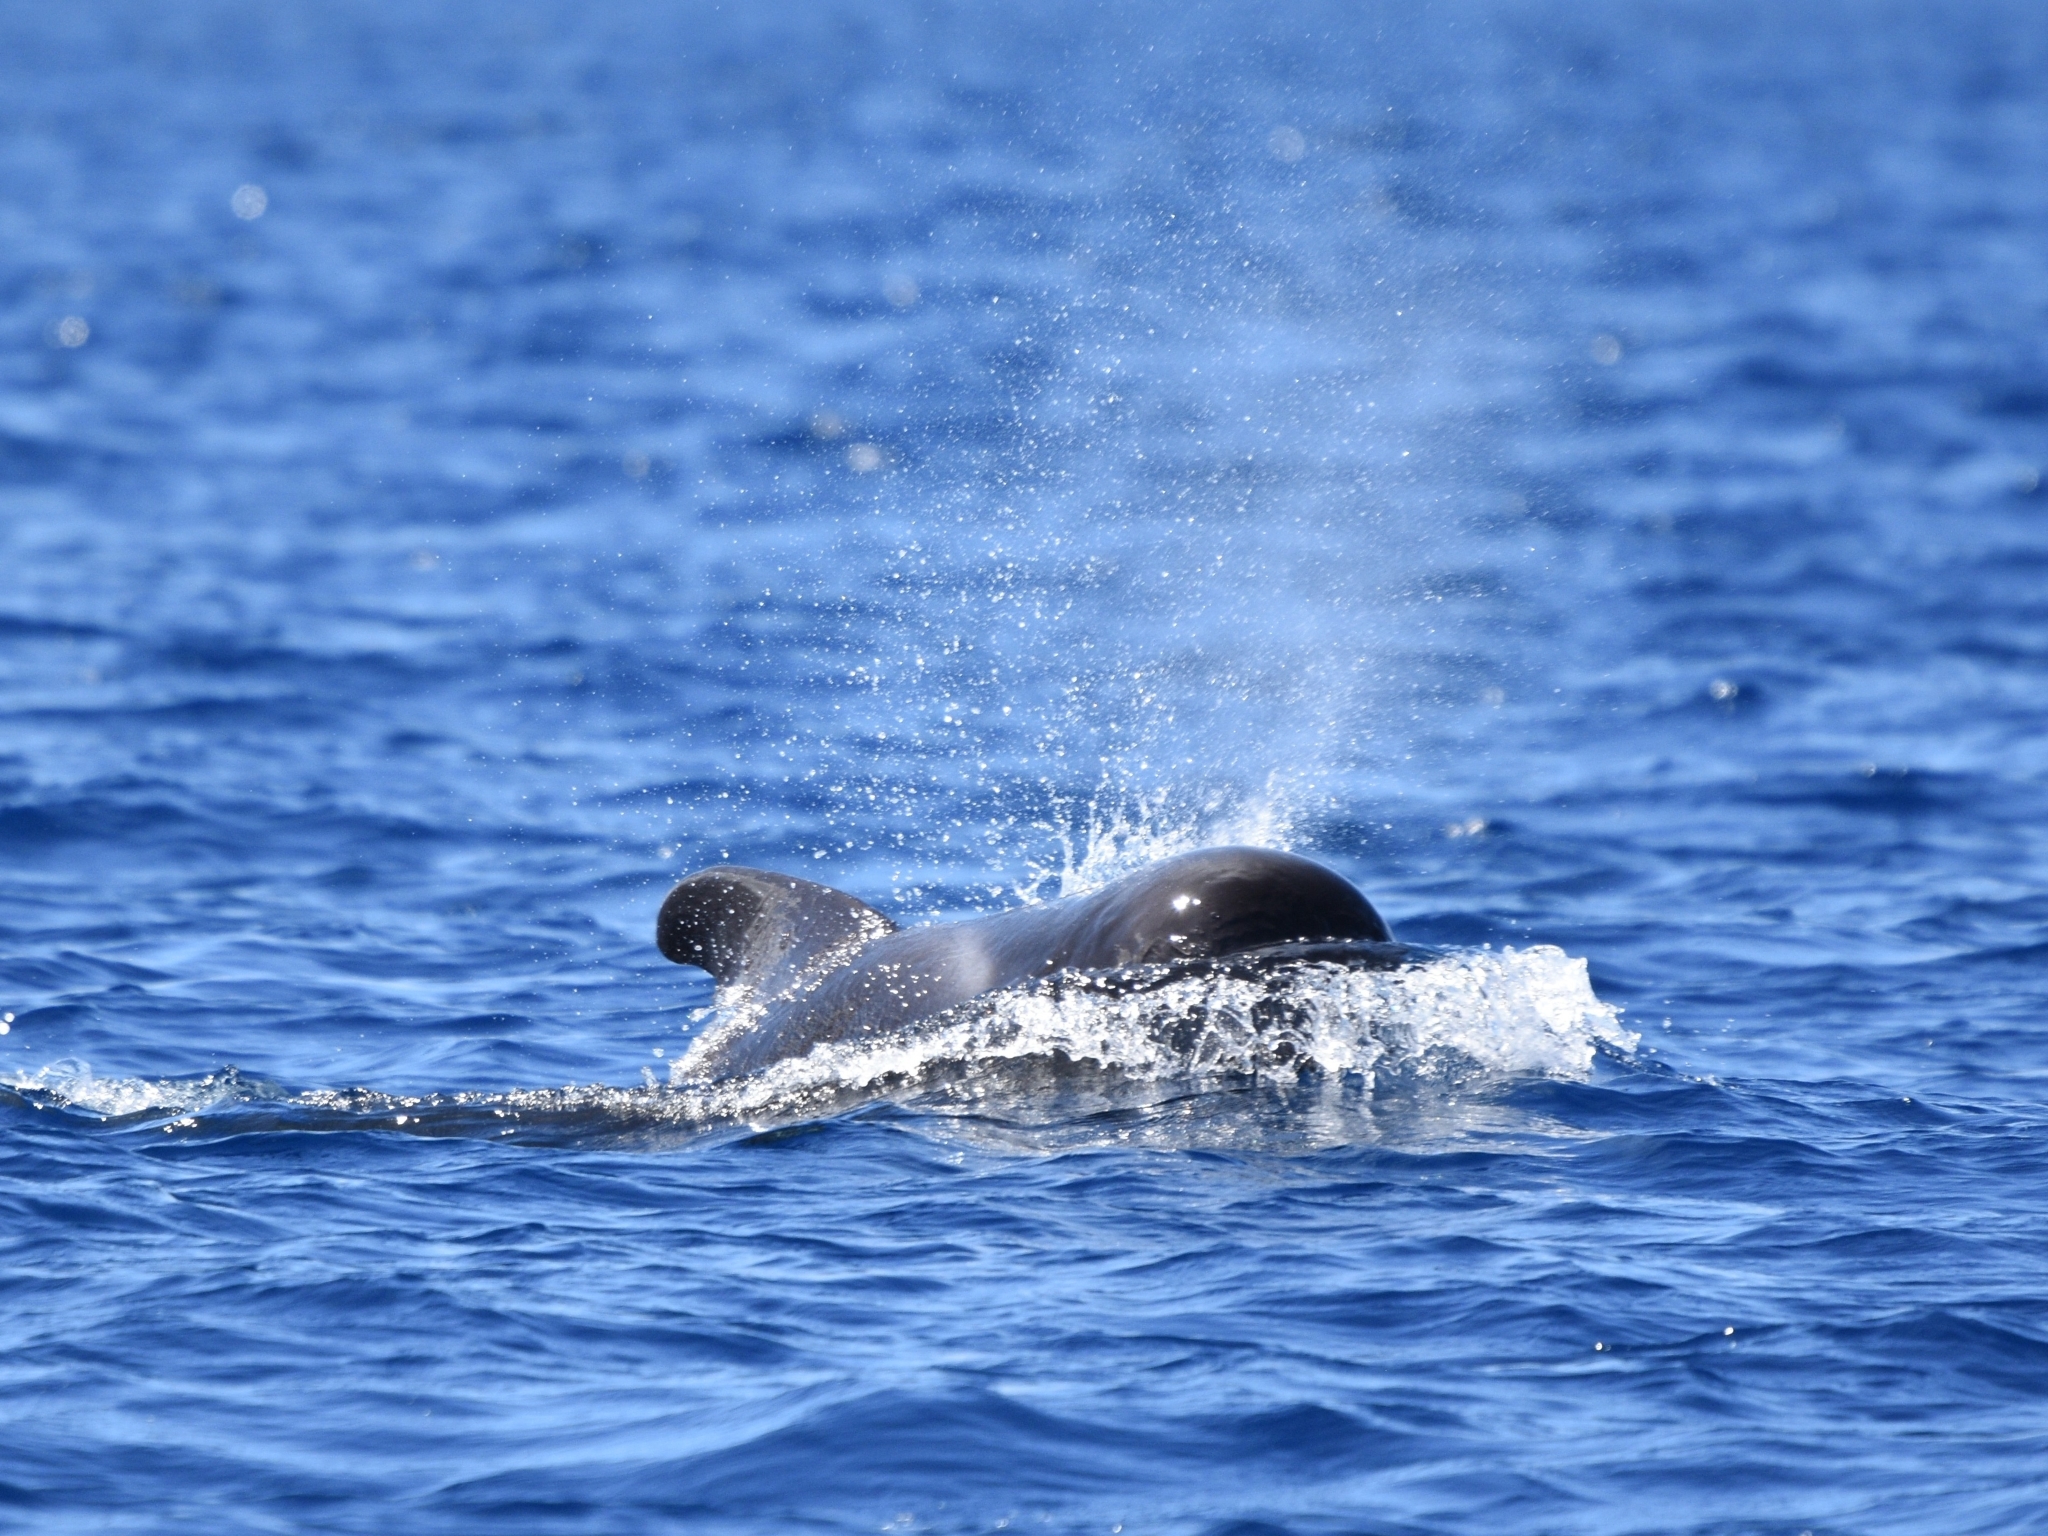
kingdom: Animalia
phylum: Chordata
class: Mammalia
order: Cetacea
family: Delphinidae
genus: Globicephala
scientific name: Globicephala macrorhynchus
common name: Short-finned pilot whale
